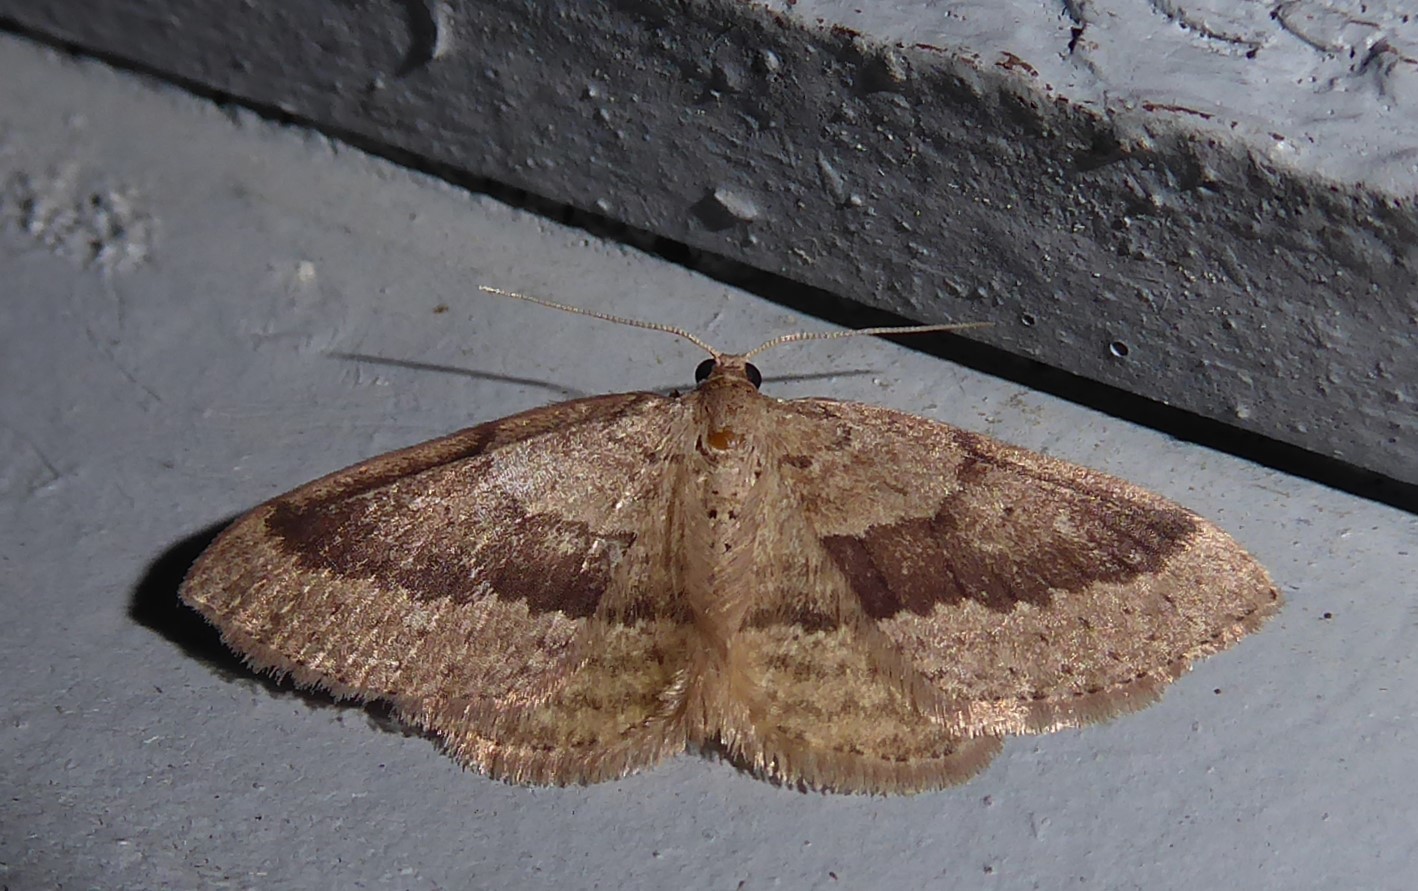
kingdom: Animalia
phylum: Arthropoda
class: Insecta
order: Lepidoptera
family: Geometridae
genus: Poecilasthena
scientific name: Poecilasthena schistaria
